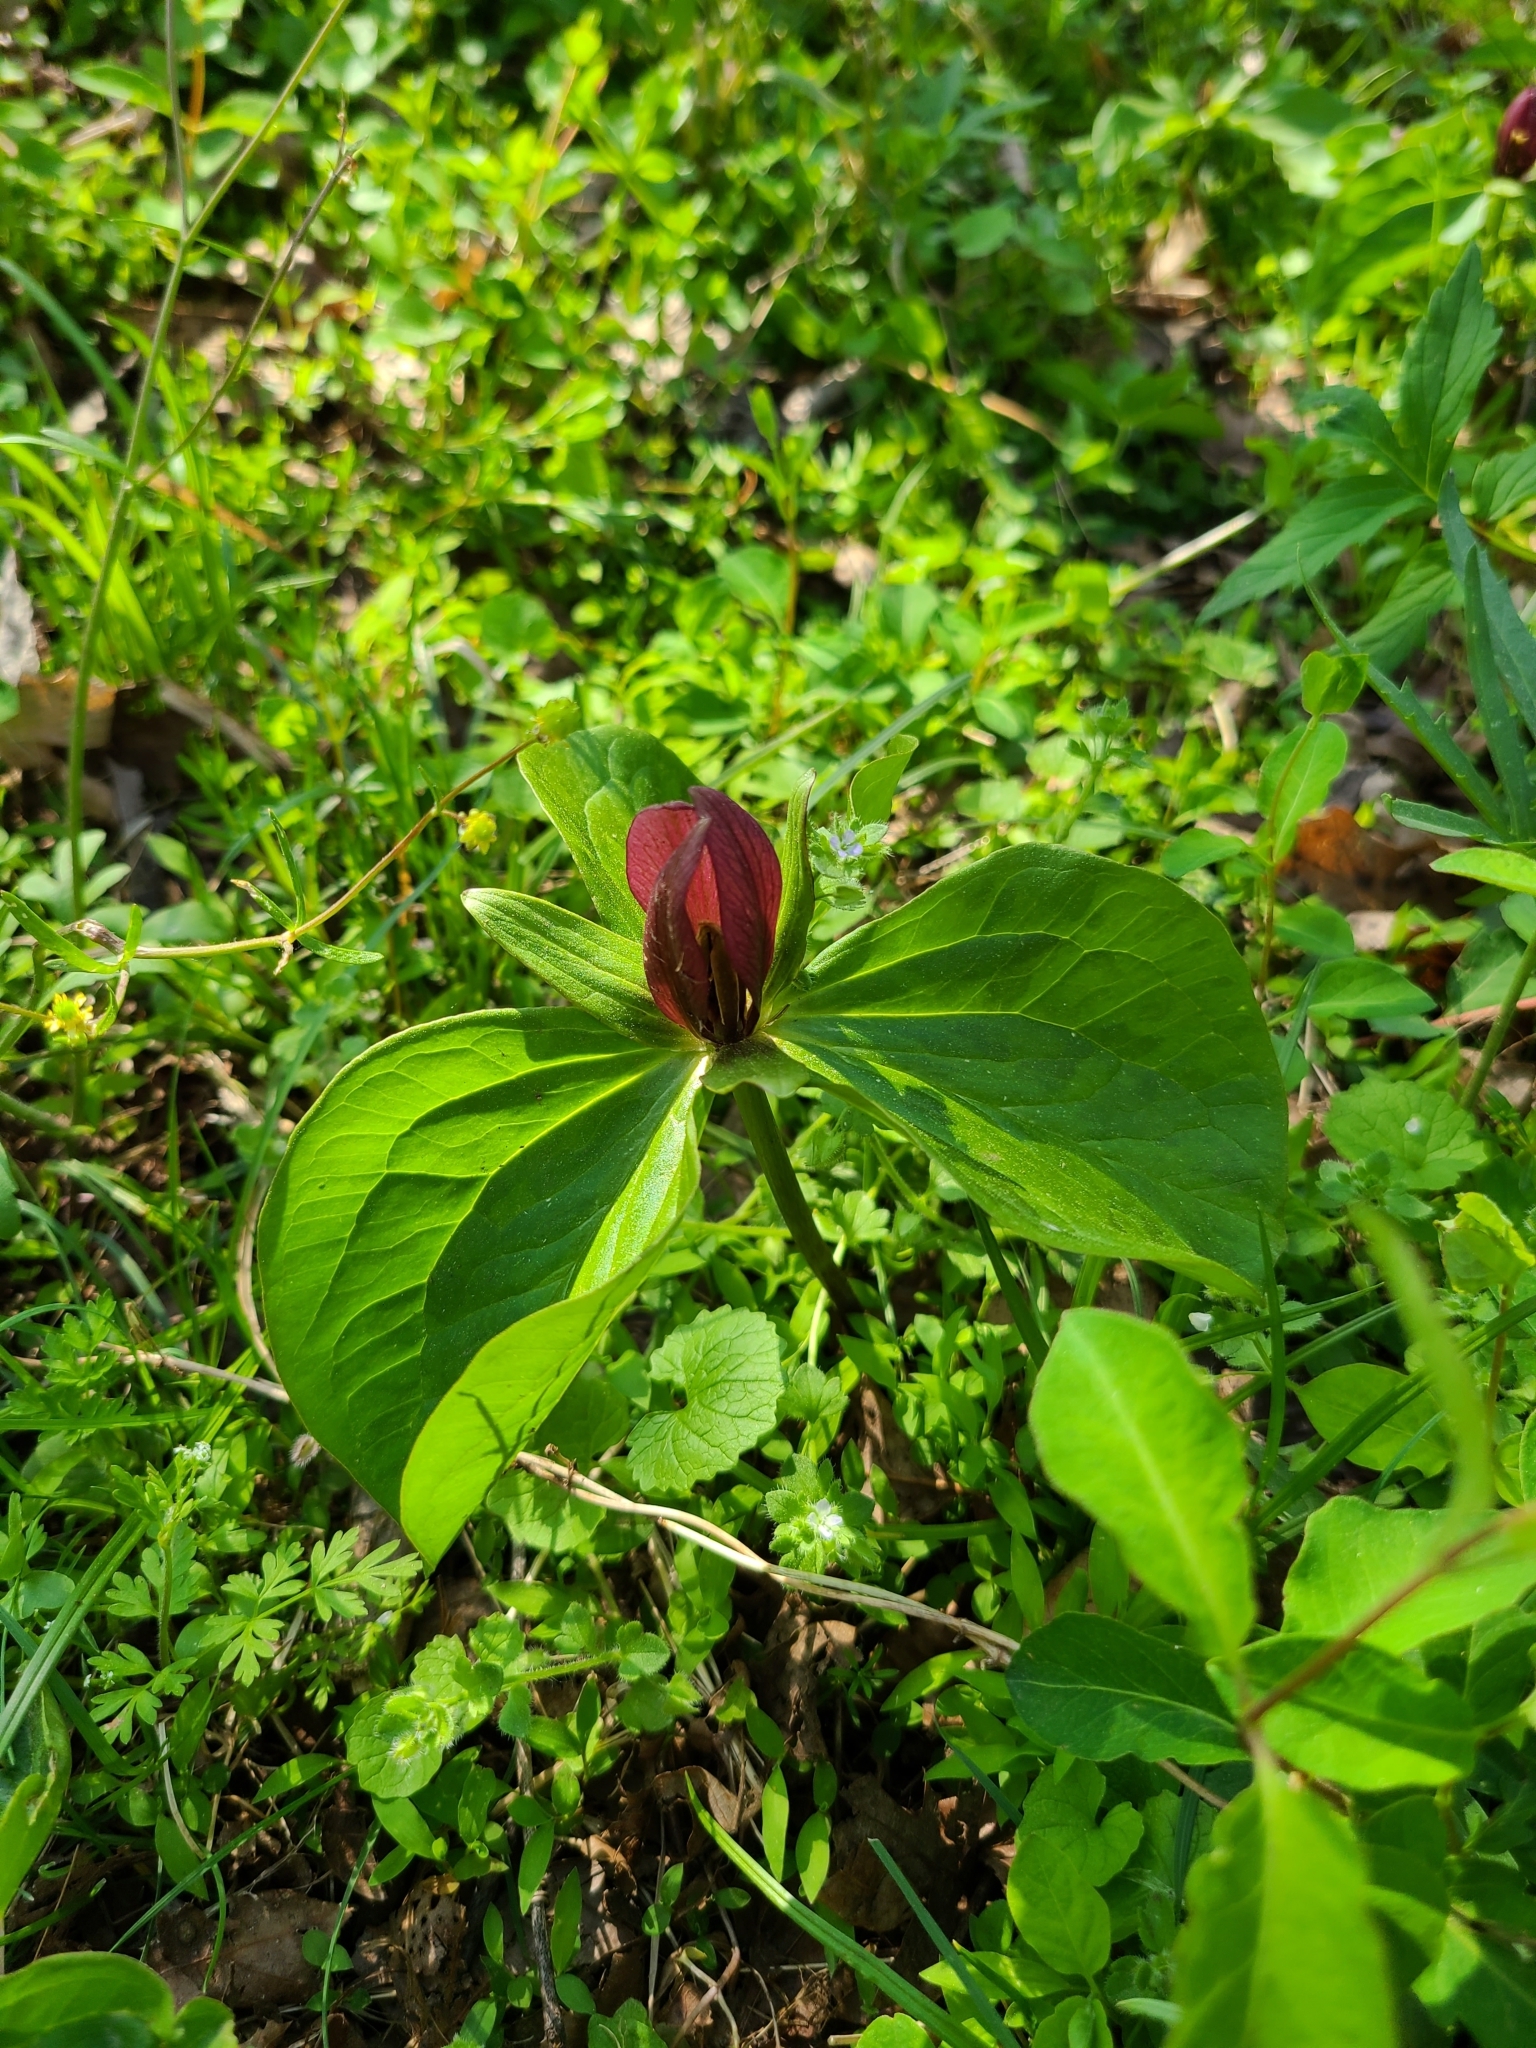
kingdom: Plantae
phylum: Tracheophyta
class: Liliopsida
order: Liliales
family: Melanthiaceae
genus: Trillium
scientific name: Trillium sessile
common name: Sessile trillium
